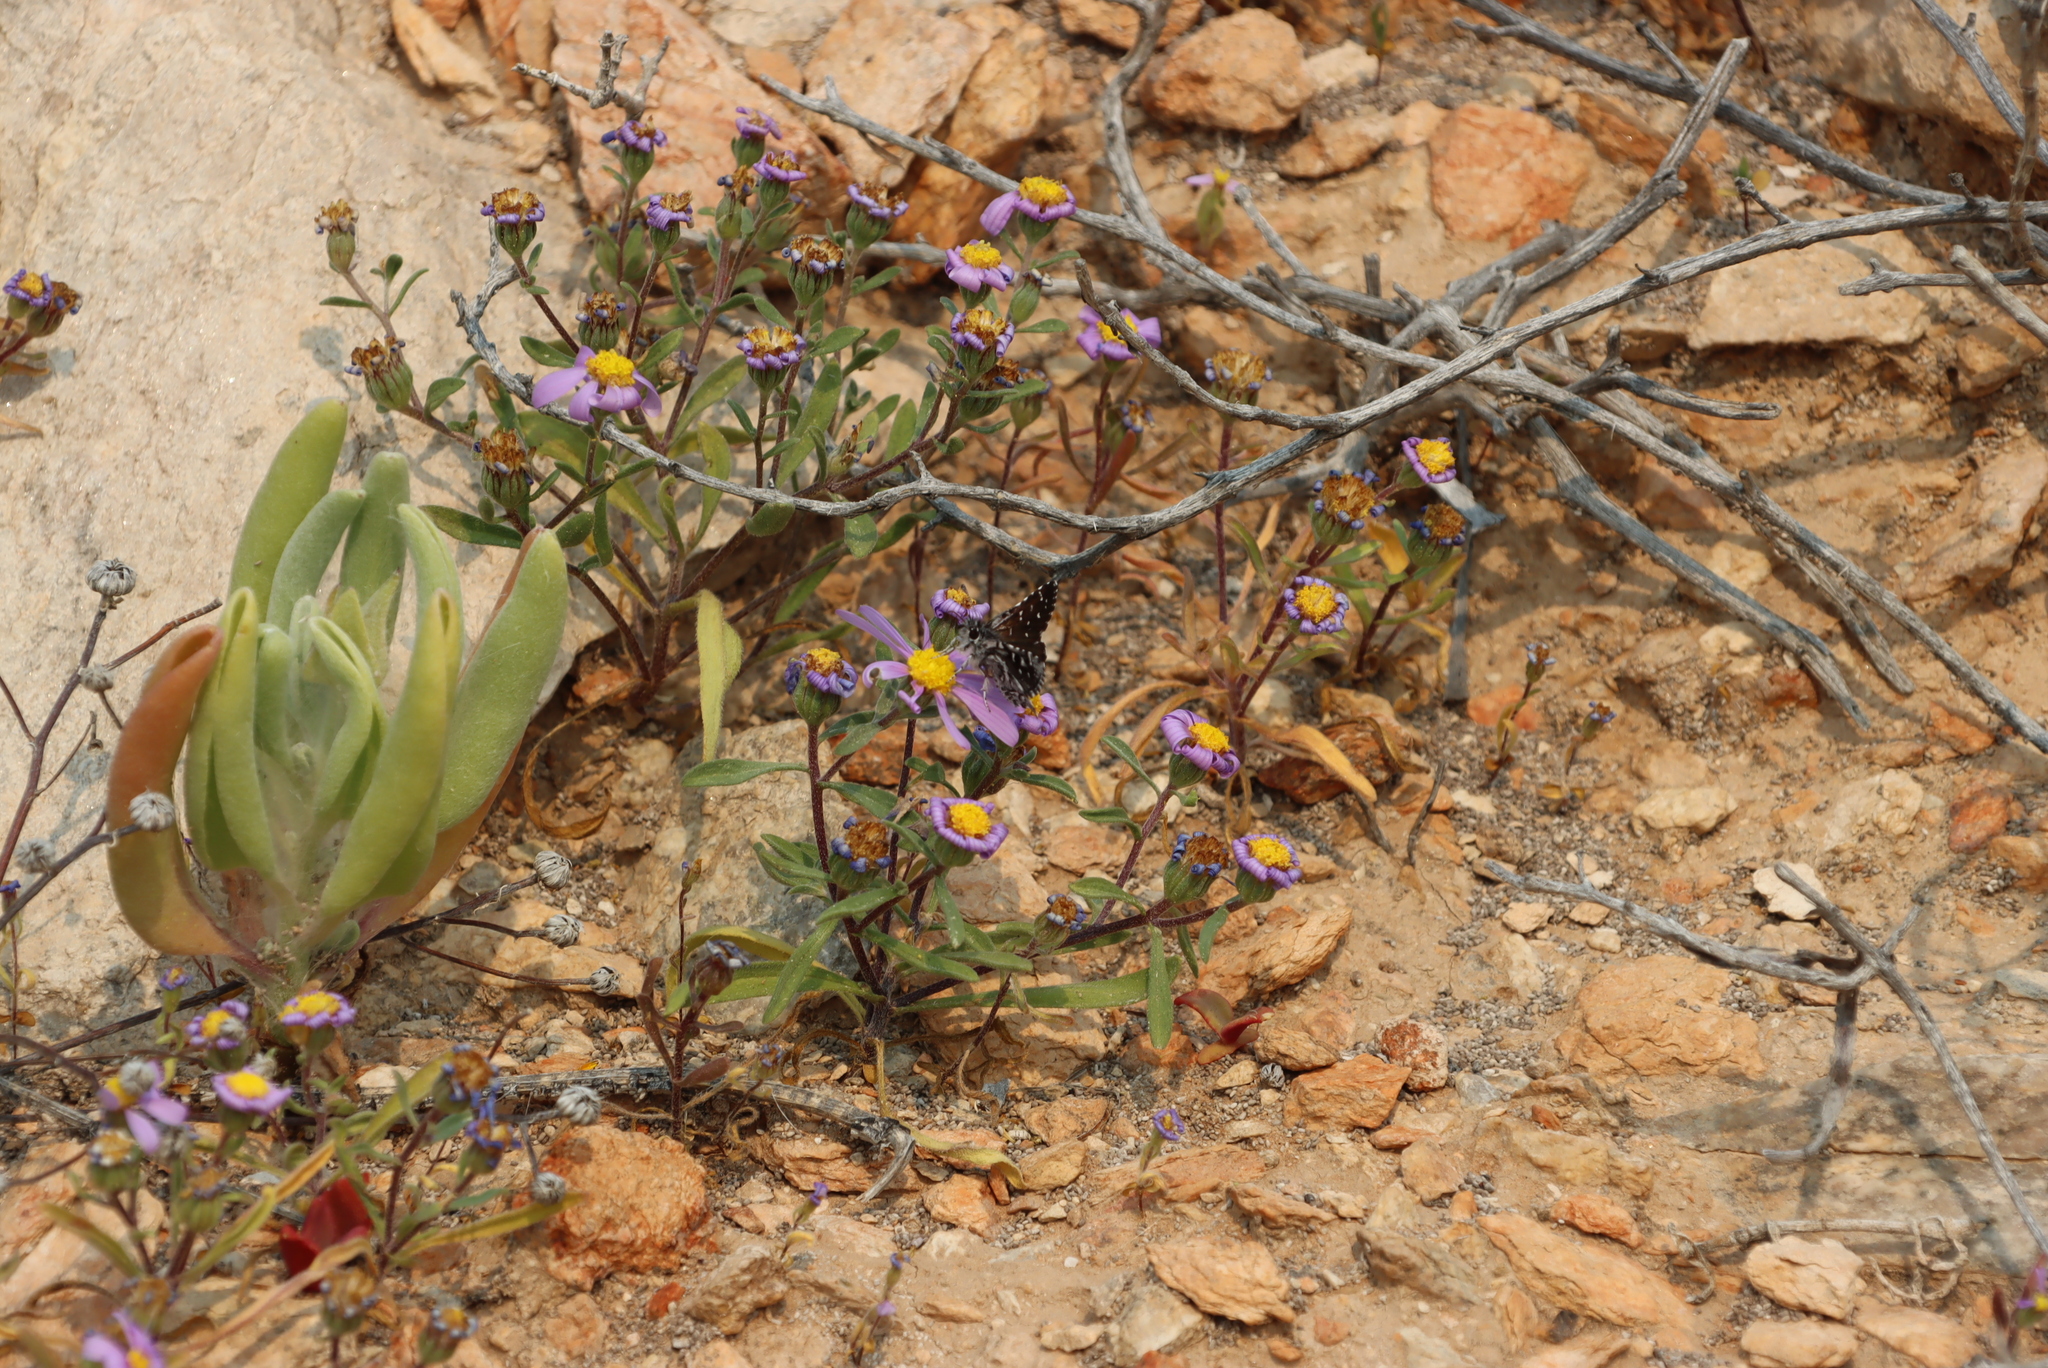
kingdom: Animalia
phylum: Arthropoda
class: Insecta
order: Lepidoptera
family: Hesperiidae
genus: Alenia
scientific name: Alenia namaqua
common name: Namaqua dancer
